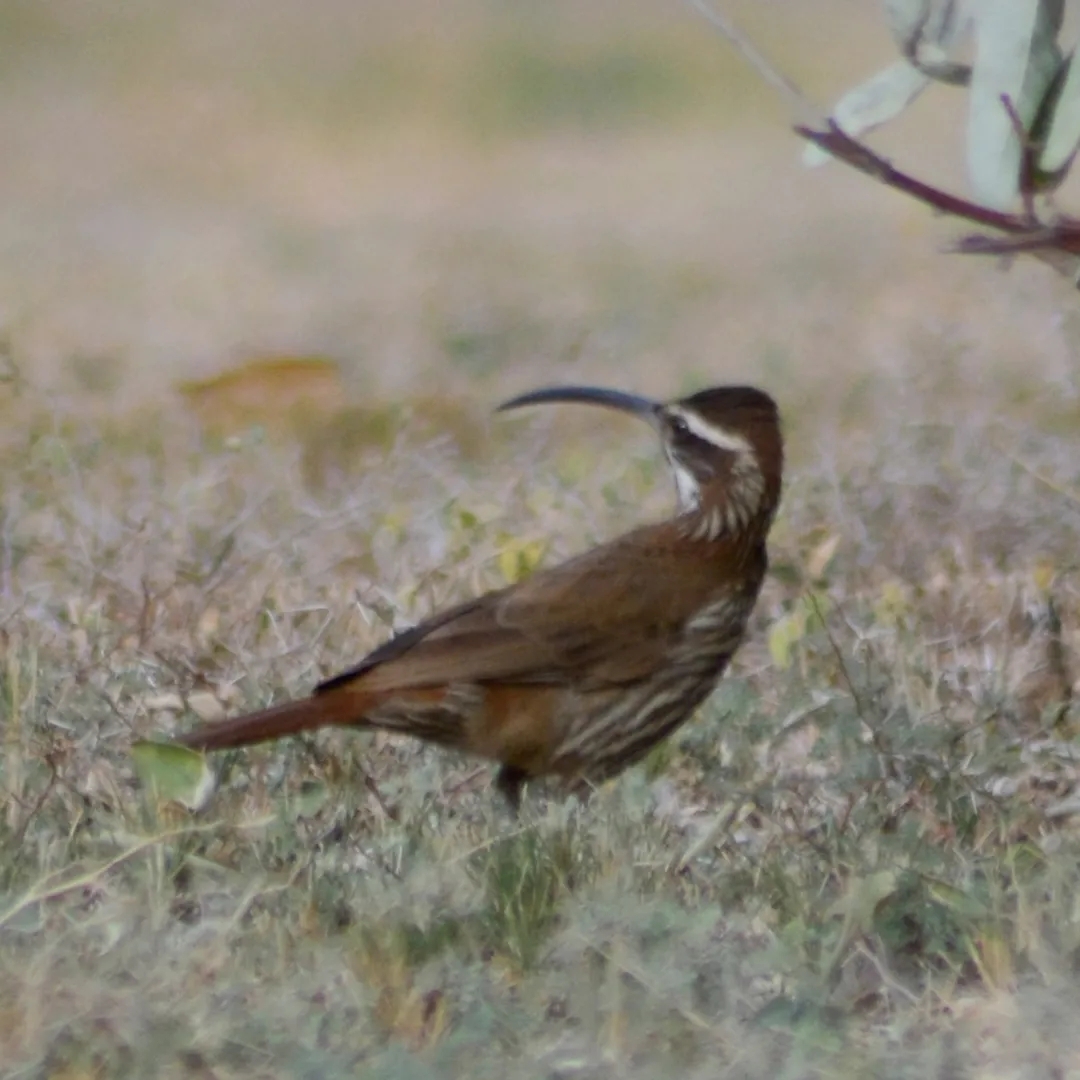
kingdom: Animalia
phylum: Chordata
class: Aves
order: Passeriformes
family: Furnariidae
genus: Drymornis
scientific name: Drymornis bridgesii
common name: Scimitar-billed woodcreeper
